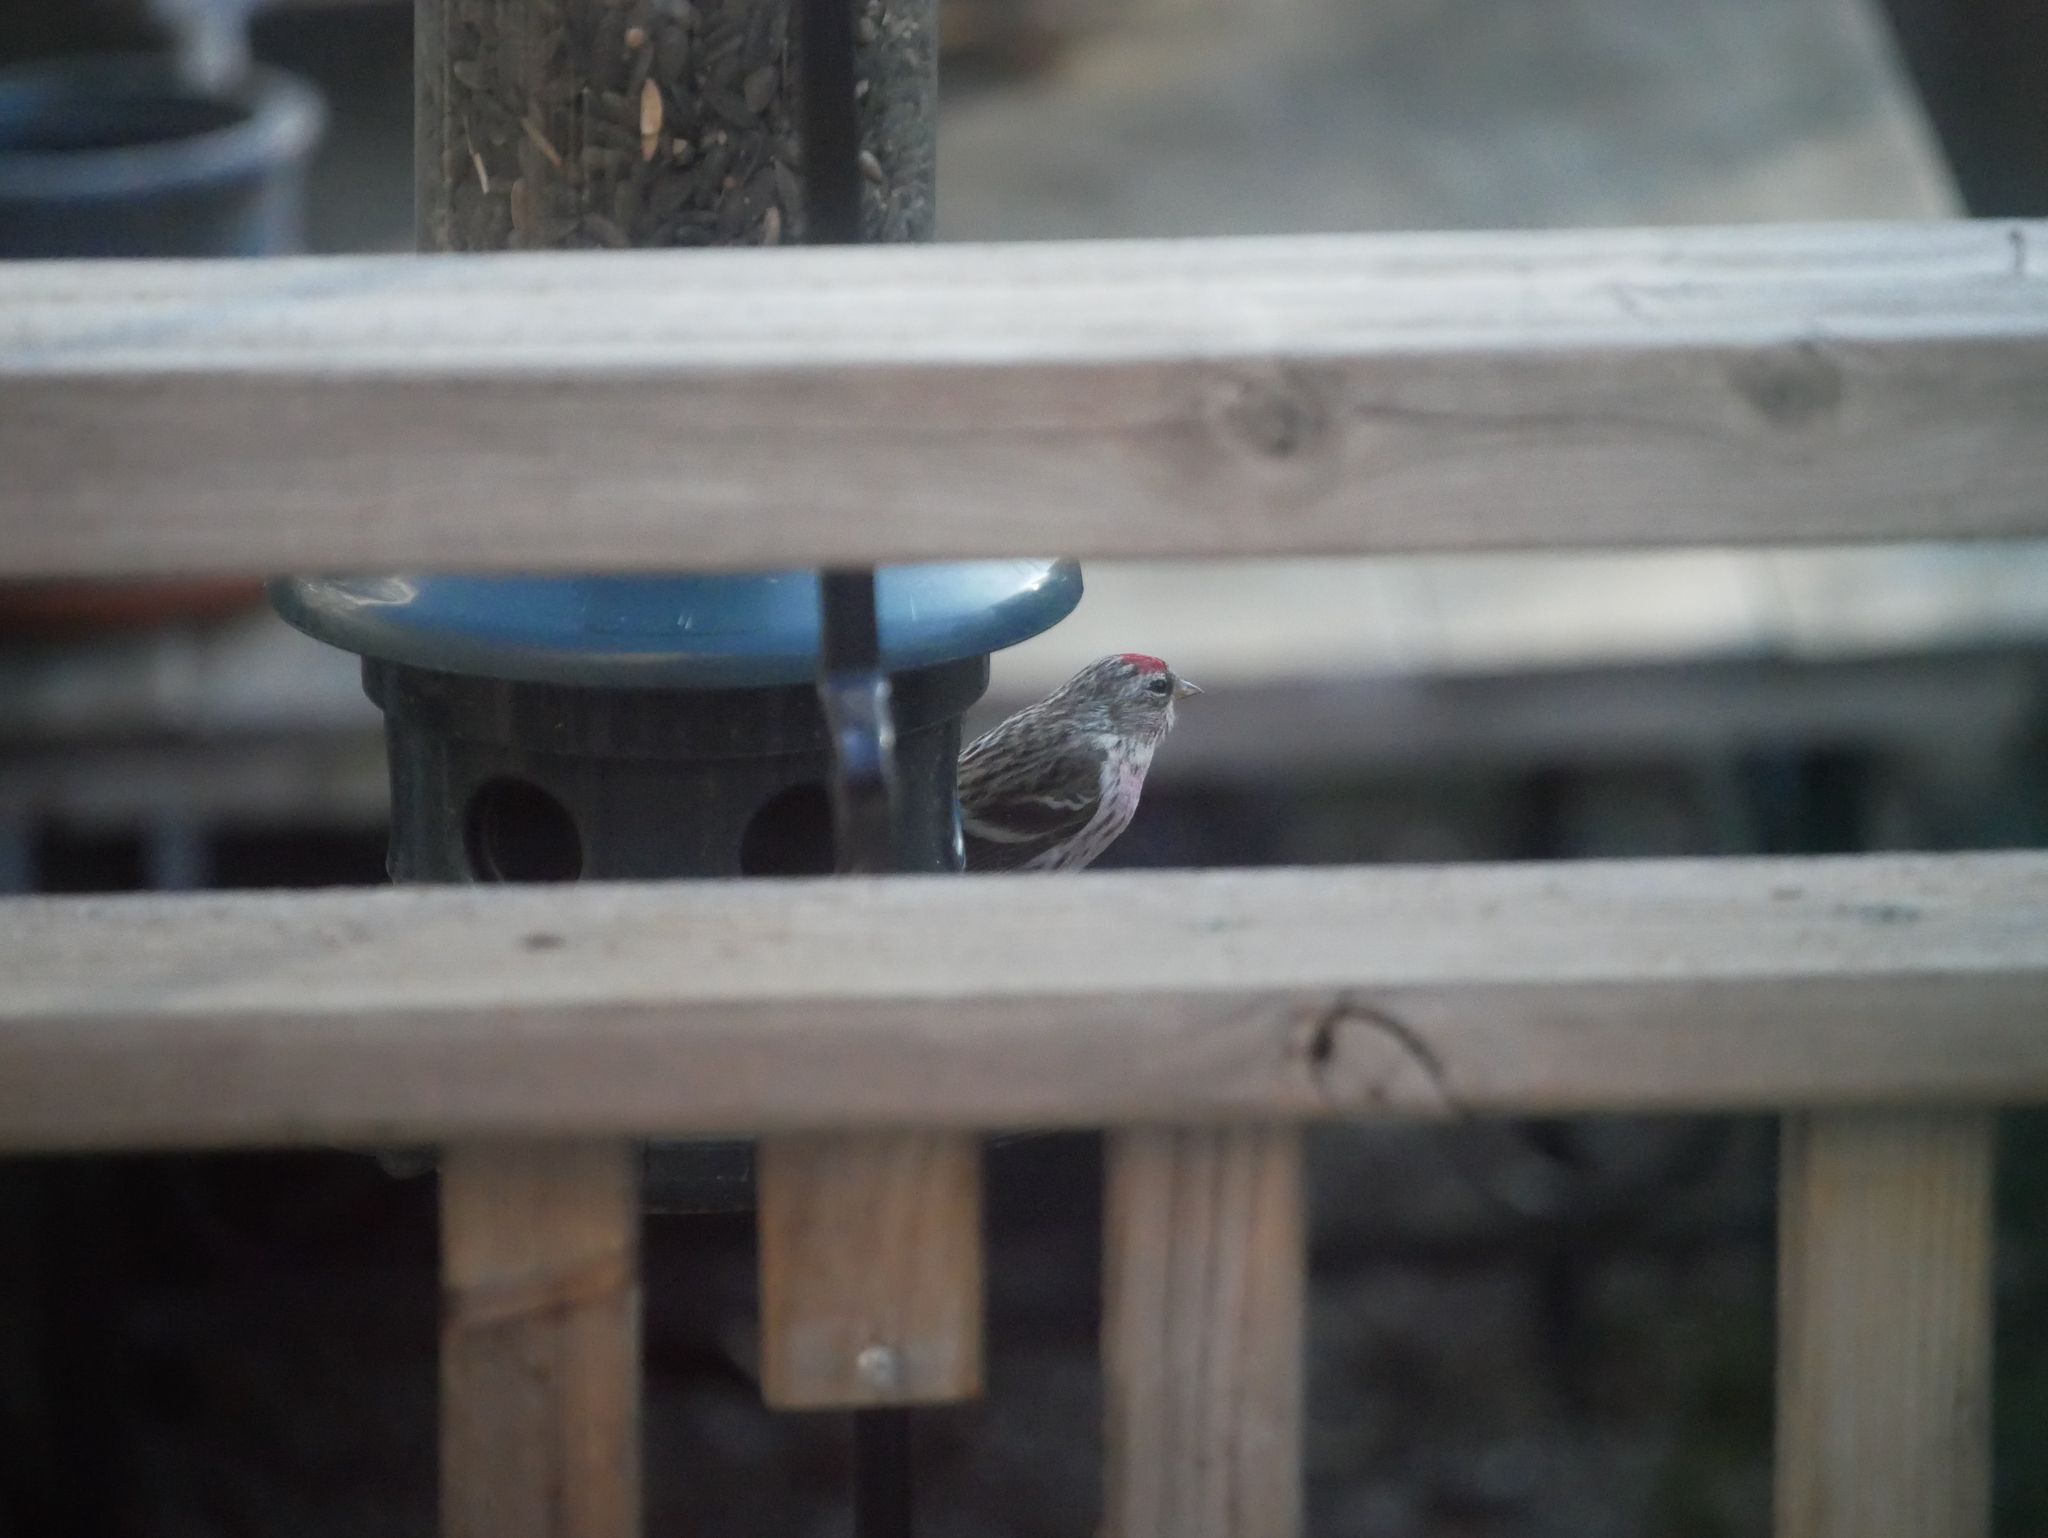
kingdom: Animalia
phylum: Chordata
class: Aves
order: Passeriformes
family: Fringillidae
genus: Acanthis
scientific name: Acanthis flammea
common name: Common redpoll
